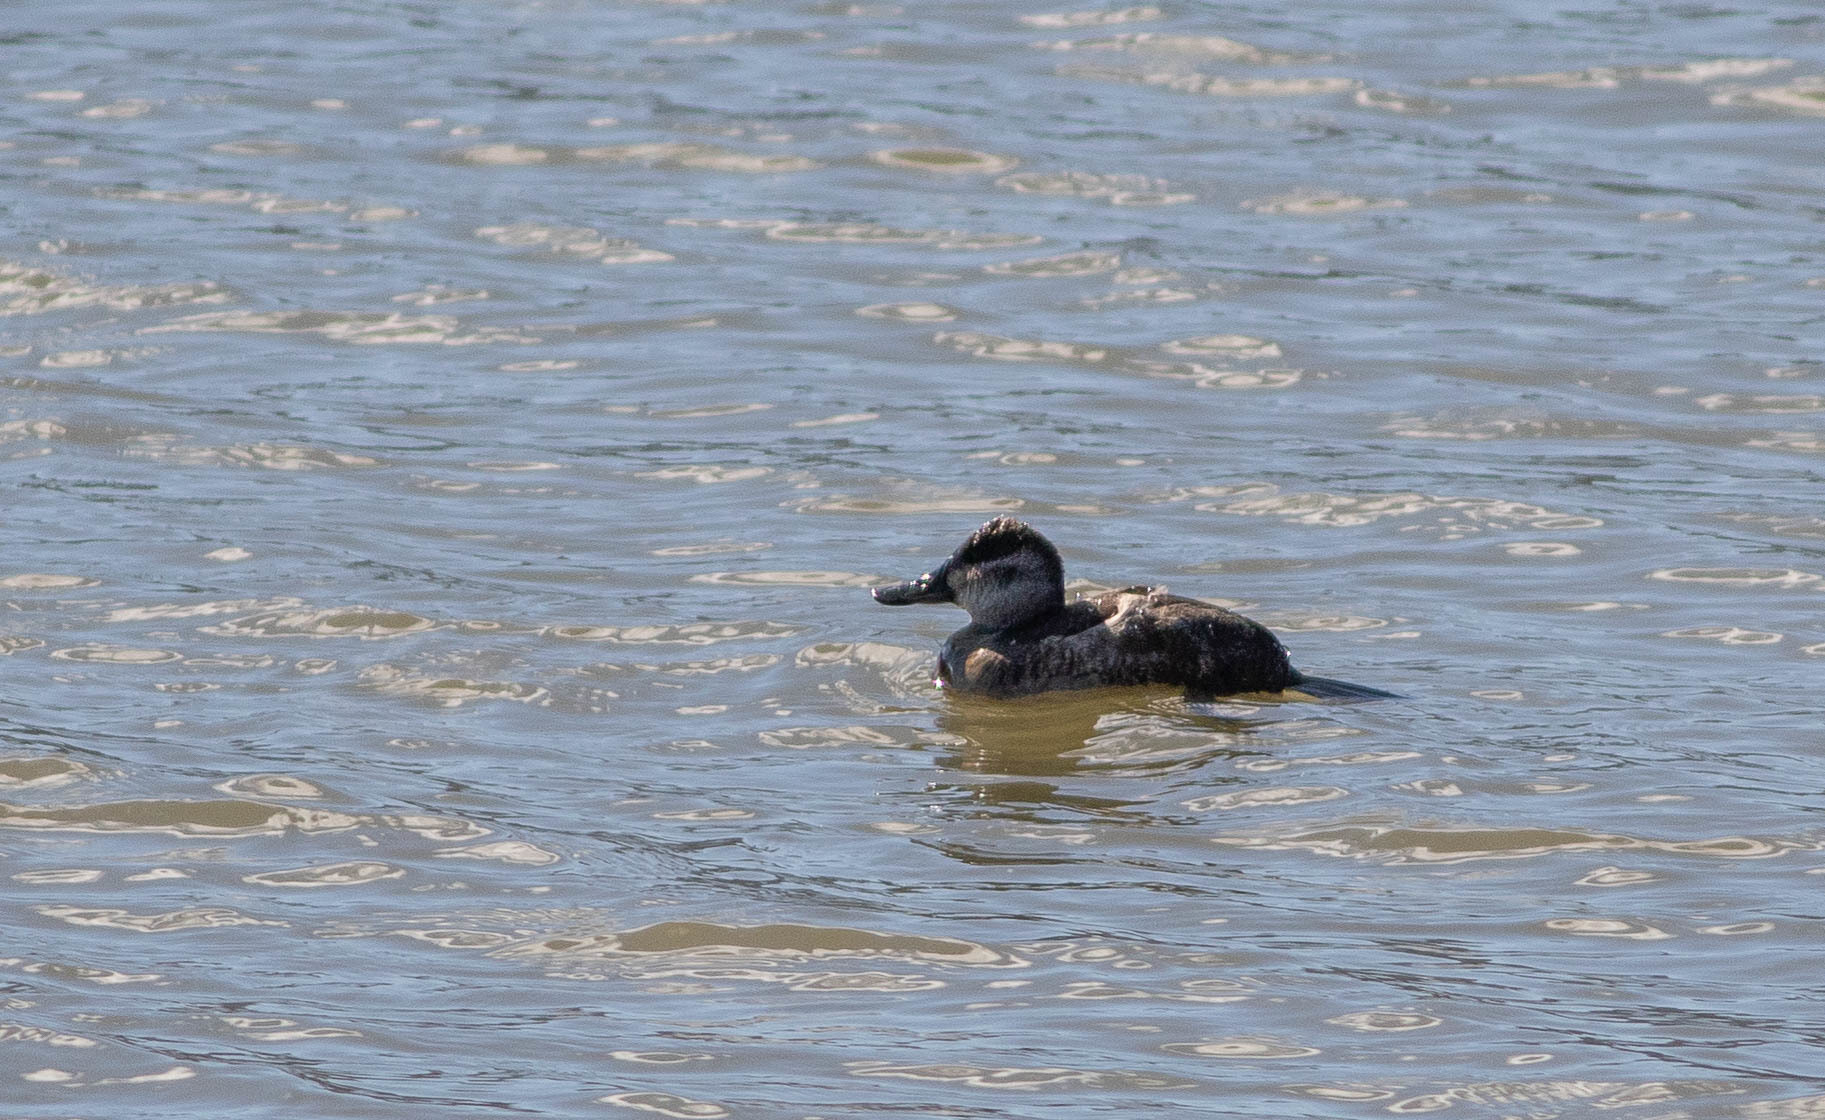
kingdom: Animalia
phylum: Chordata
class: Aves
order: Anseriformes
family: Anatidae
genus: Oxyura
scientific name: Oxyura jamaicensis
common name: Ruddy duck
